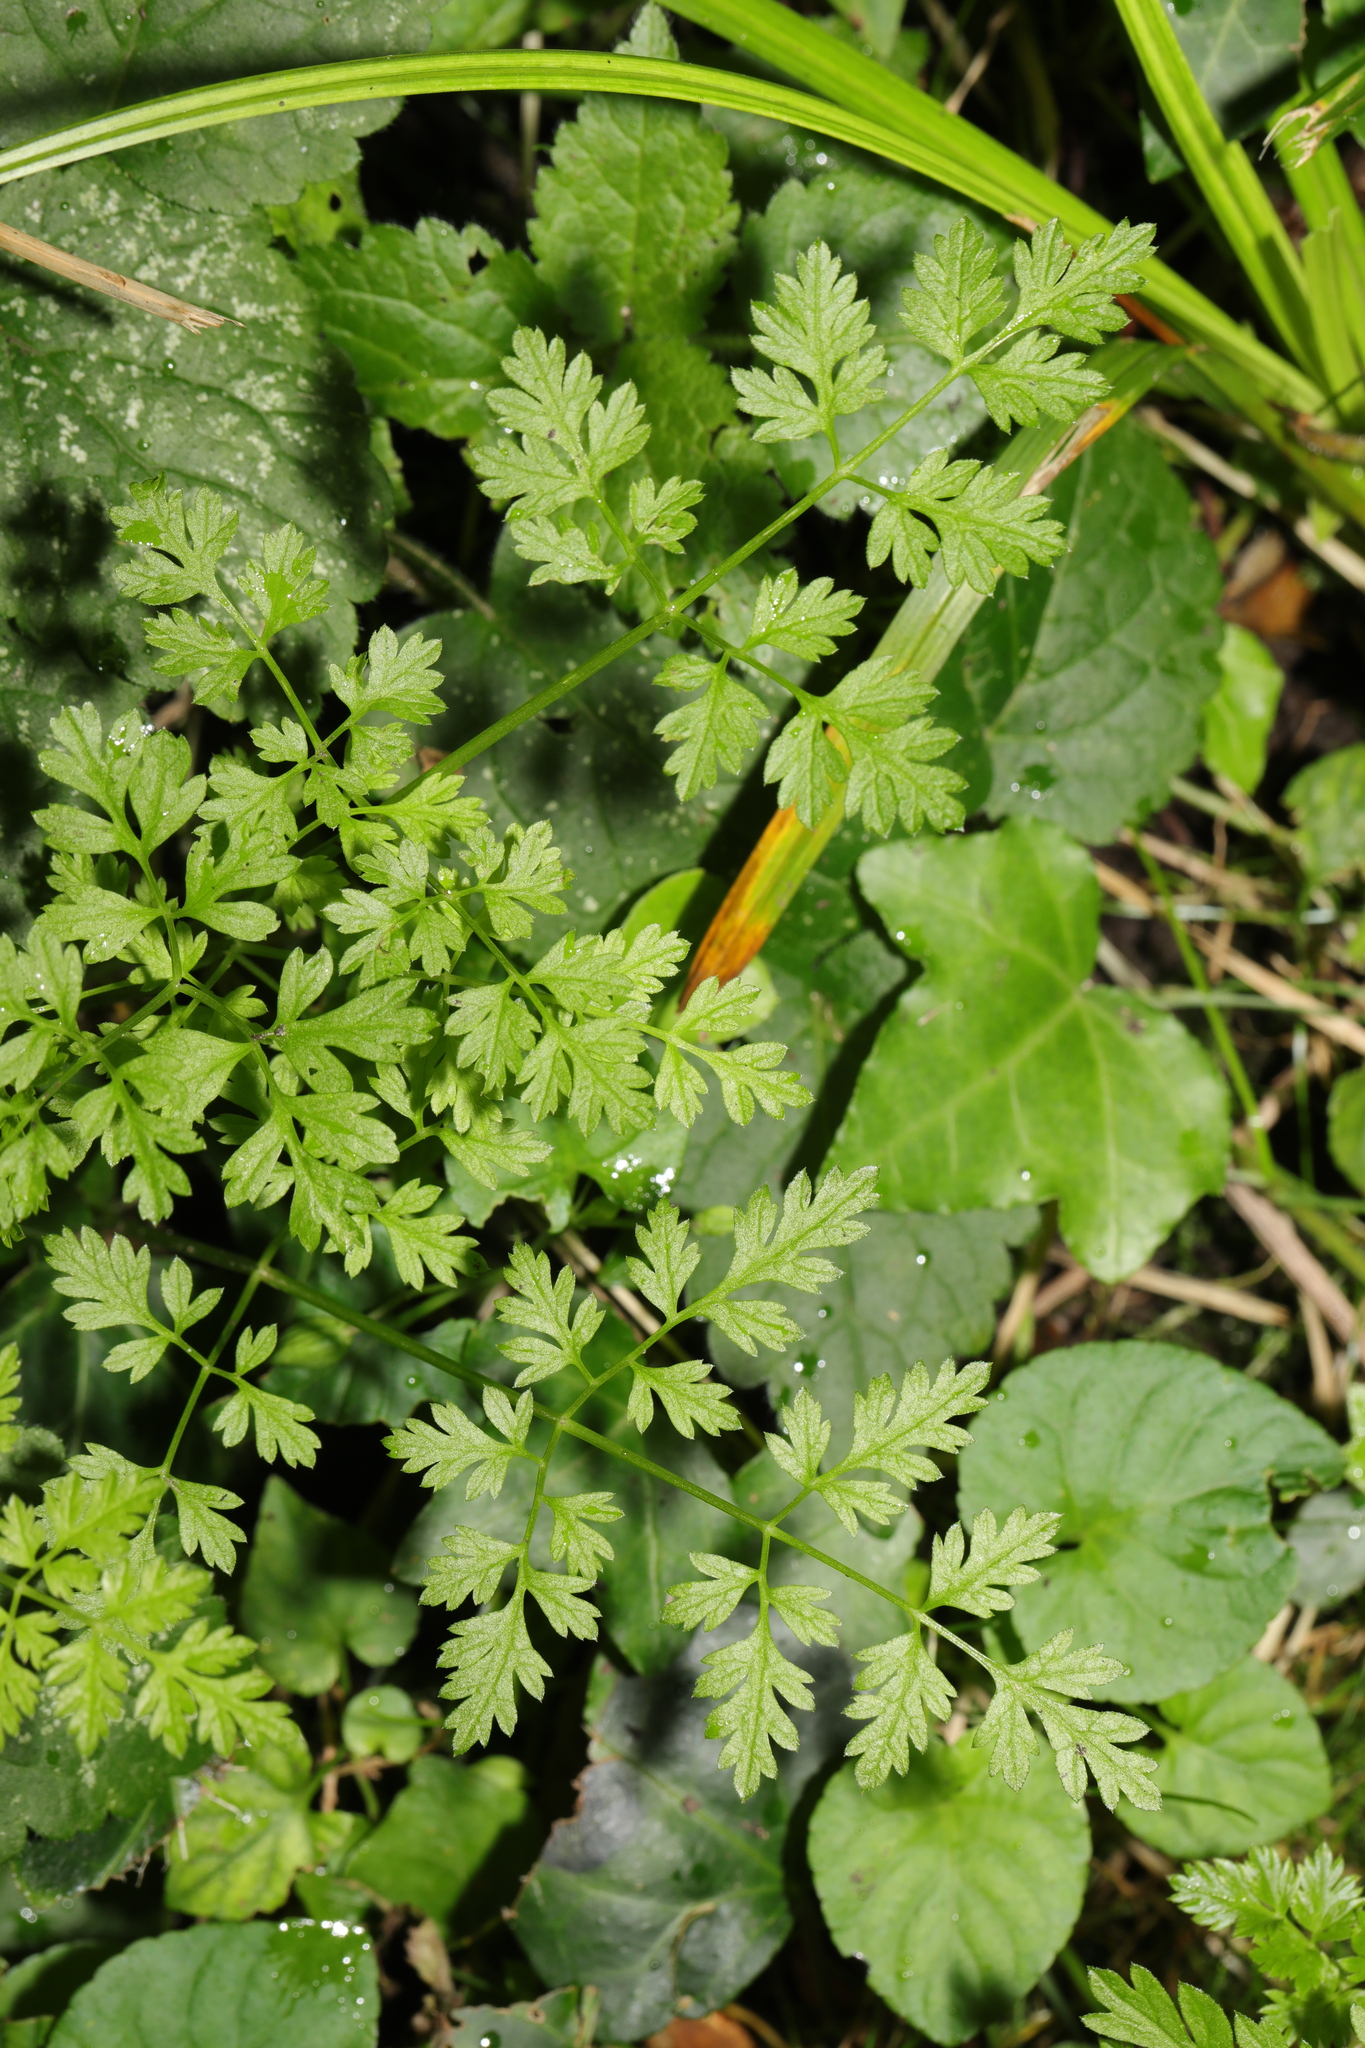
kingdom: Plantae
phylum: Tracheophyta
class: Magnoliopsida
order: Apiales
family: Apiaceae
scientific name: Apiaceae
